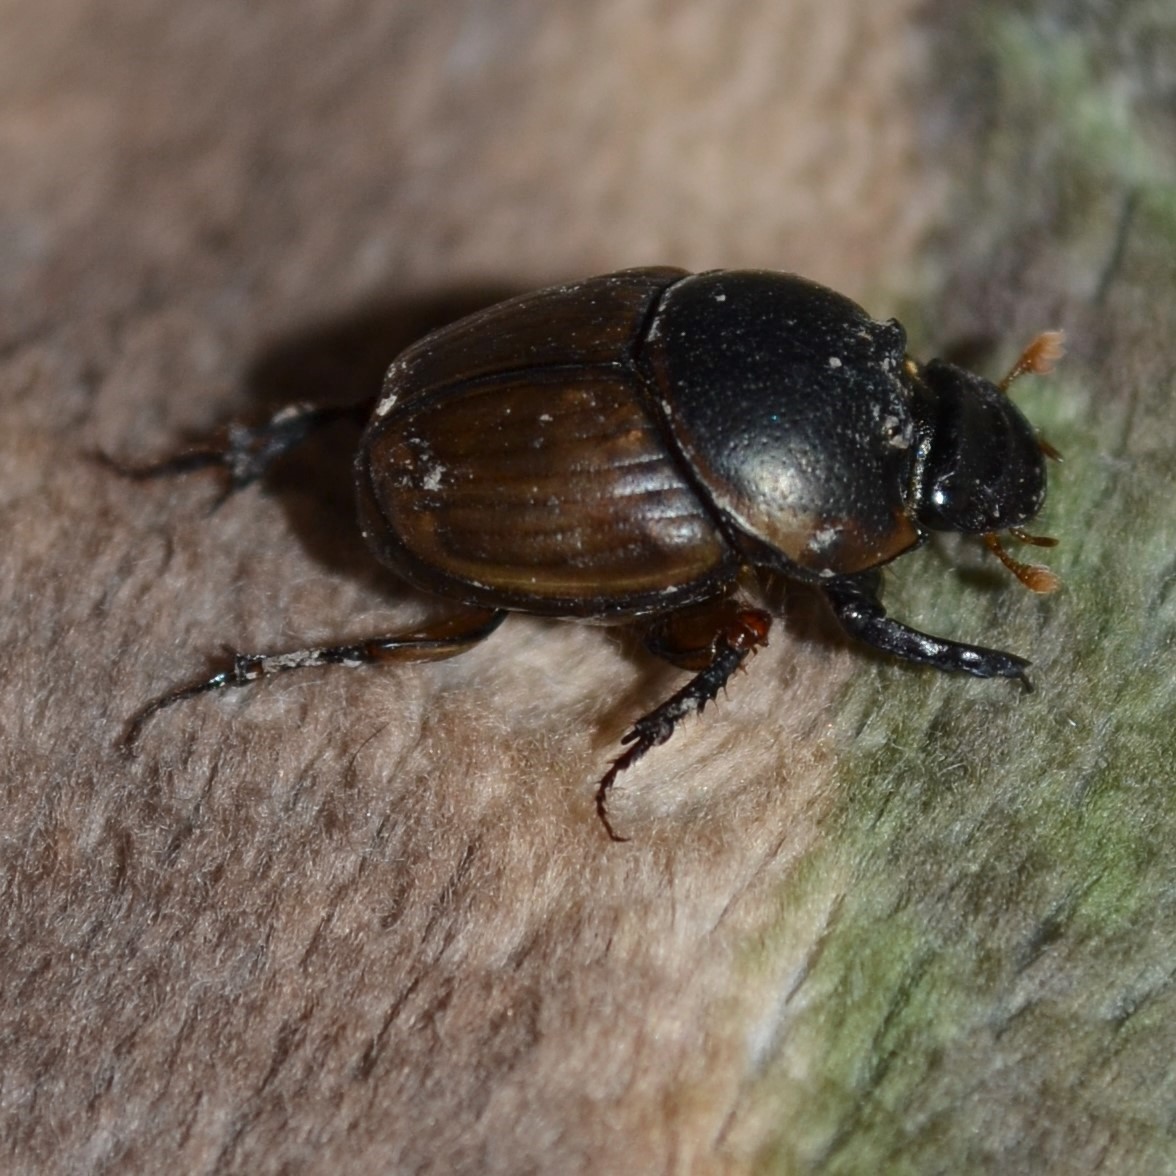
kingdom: Animalia
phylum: Arthropoda
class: Insecta
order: Coleoptera
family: Scarabaeidae
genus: Digitonthophagus
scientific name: Digitonthophagus gazella
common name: Brown dung beetle
